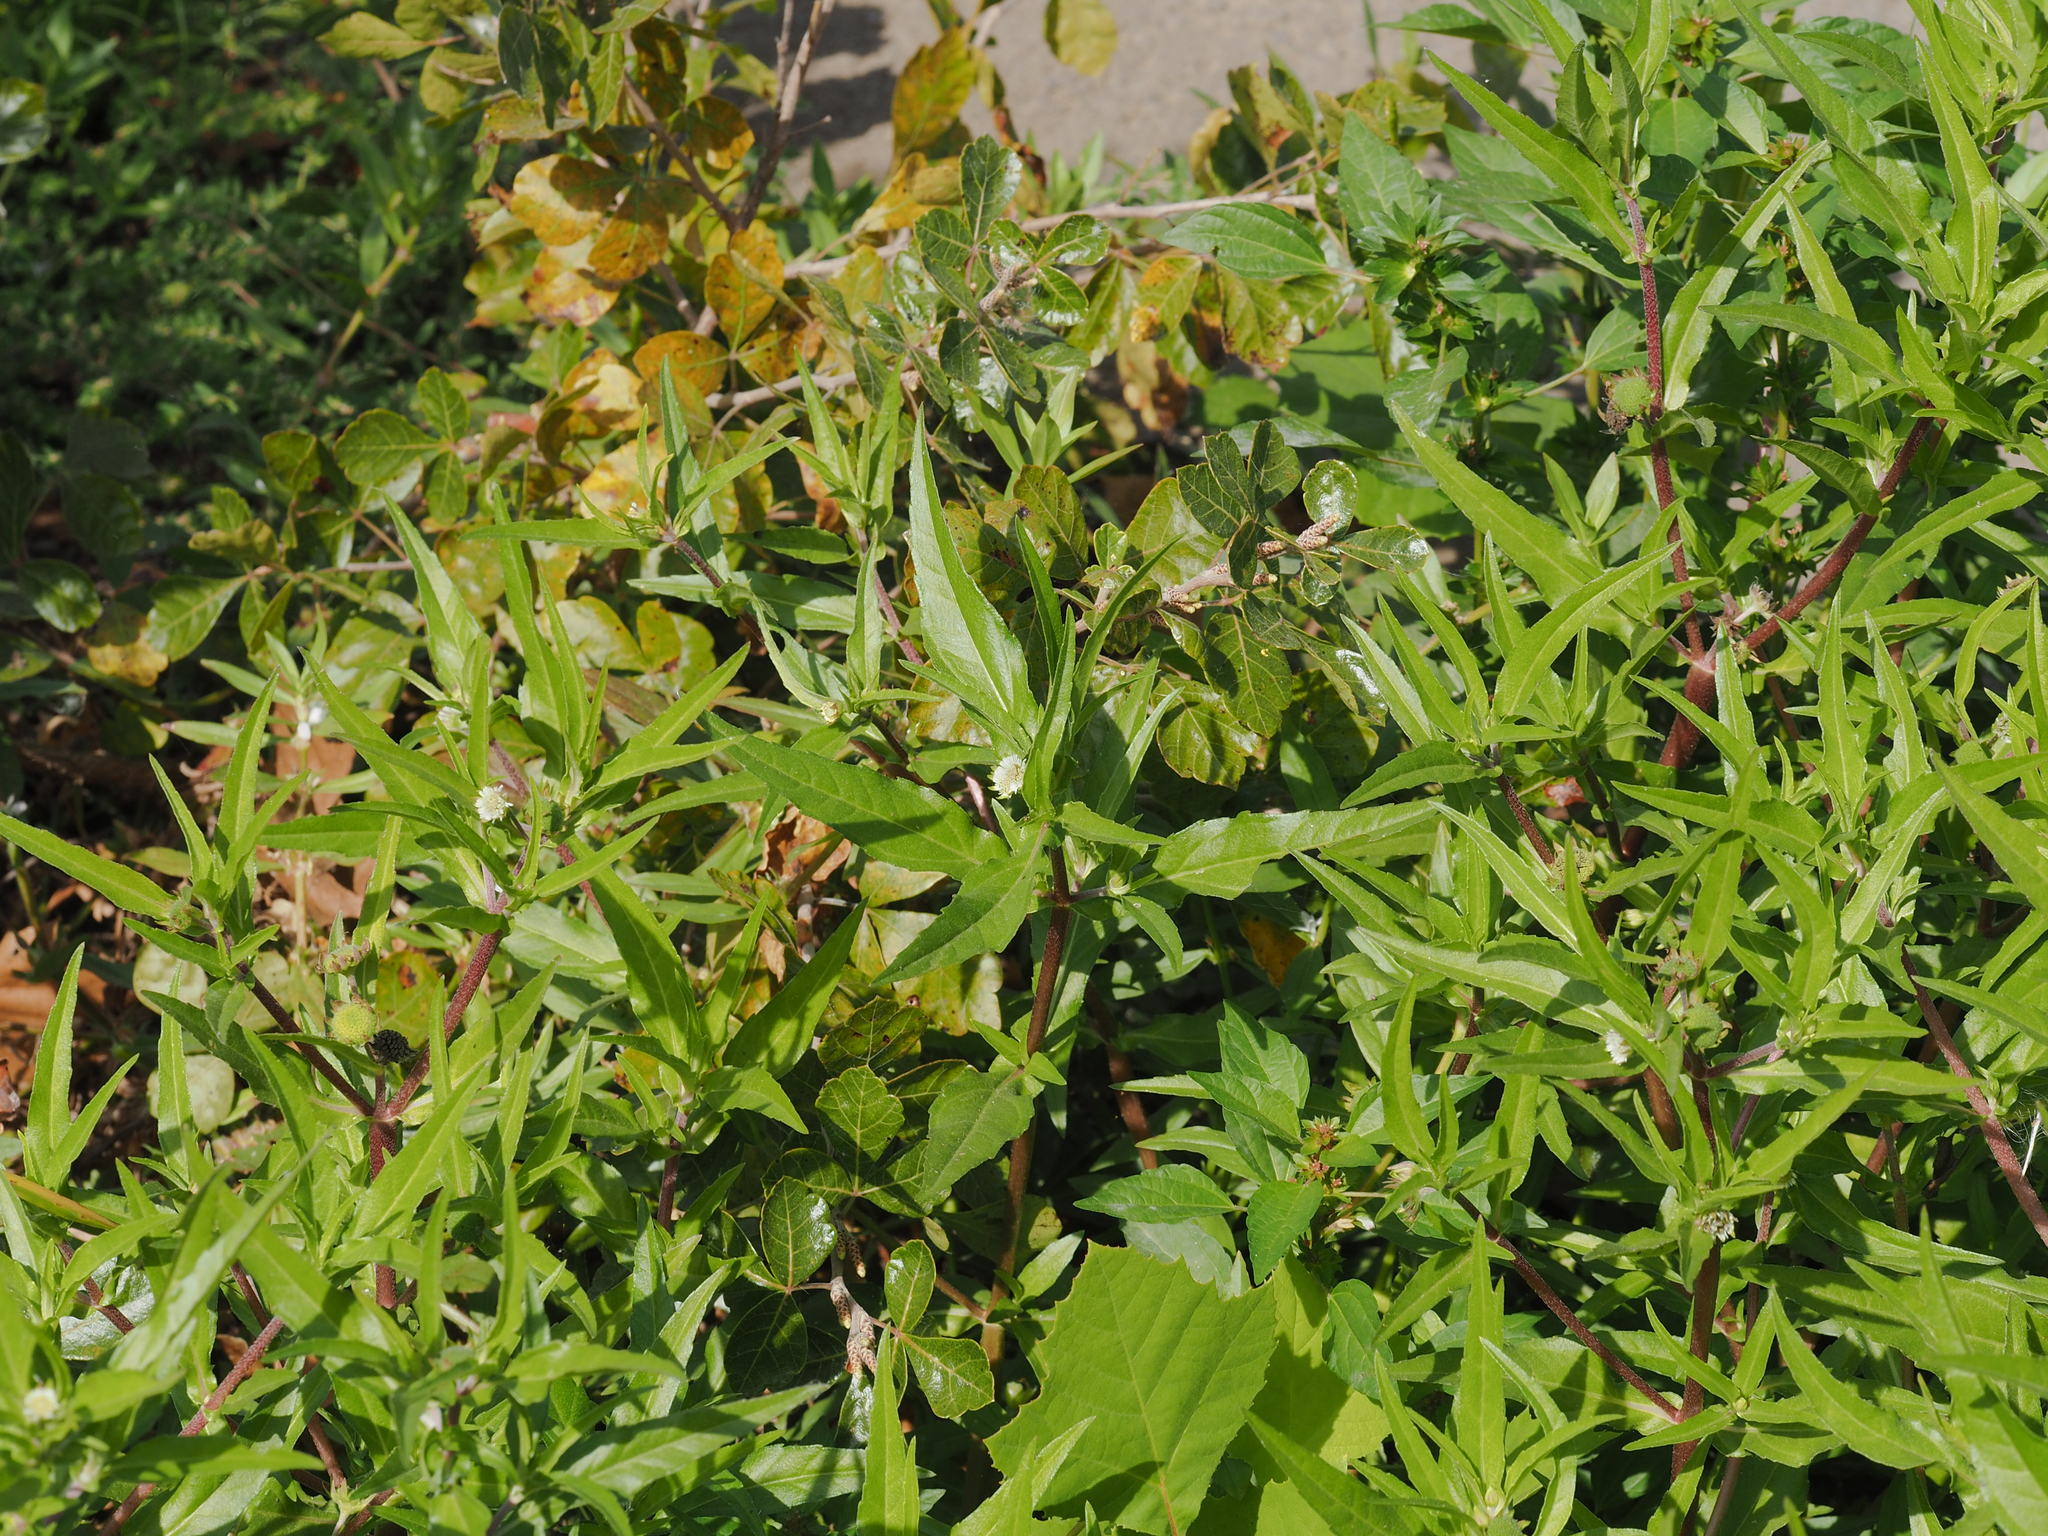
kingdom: Plantae
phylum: Tracheophyta
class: Magnoliopsida
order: Asterales
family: Asteraceae
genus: Eclipta
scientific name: Eclipta prostrata
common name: False daisy
